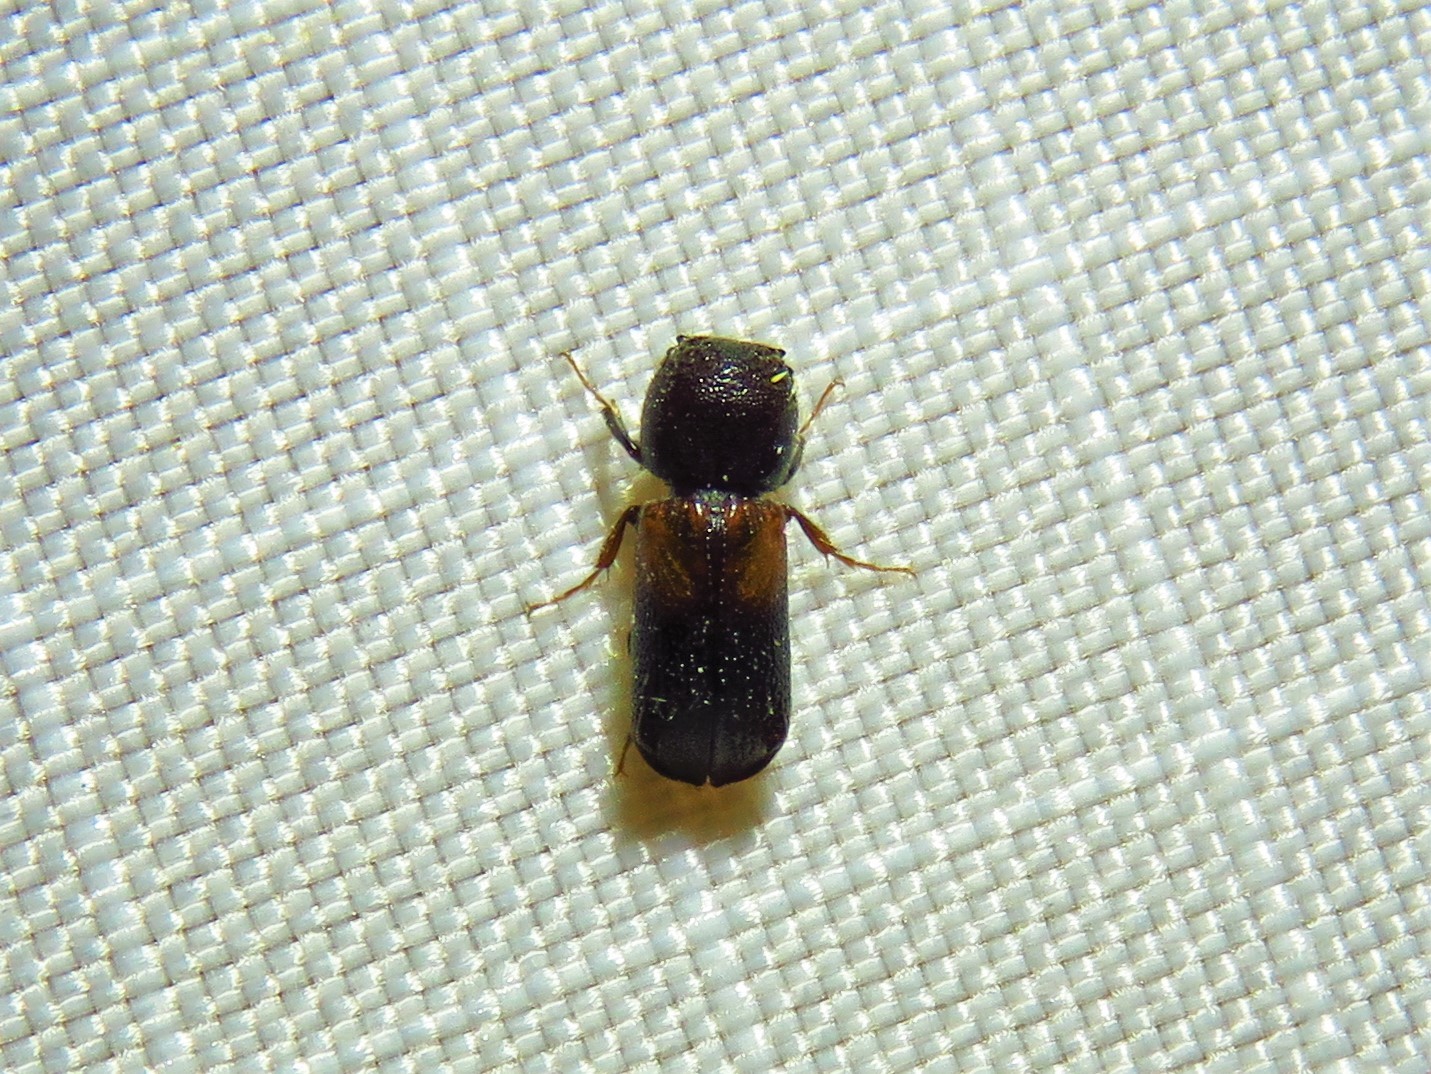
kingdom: Animalia
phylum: Arthropoda
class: Insecta
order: Coleoptera
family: Bostrichidae
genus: Xylobiops
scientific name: Xylobiops basilaris
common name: Red-shouldered bostrichid
